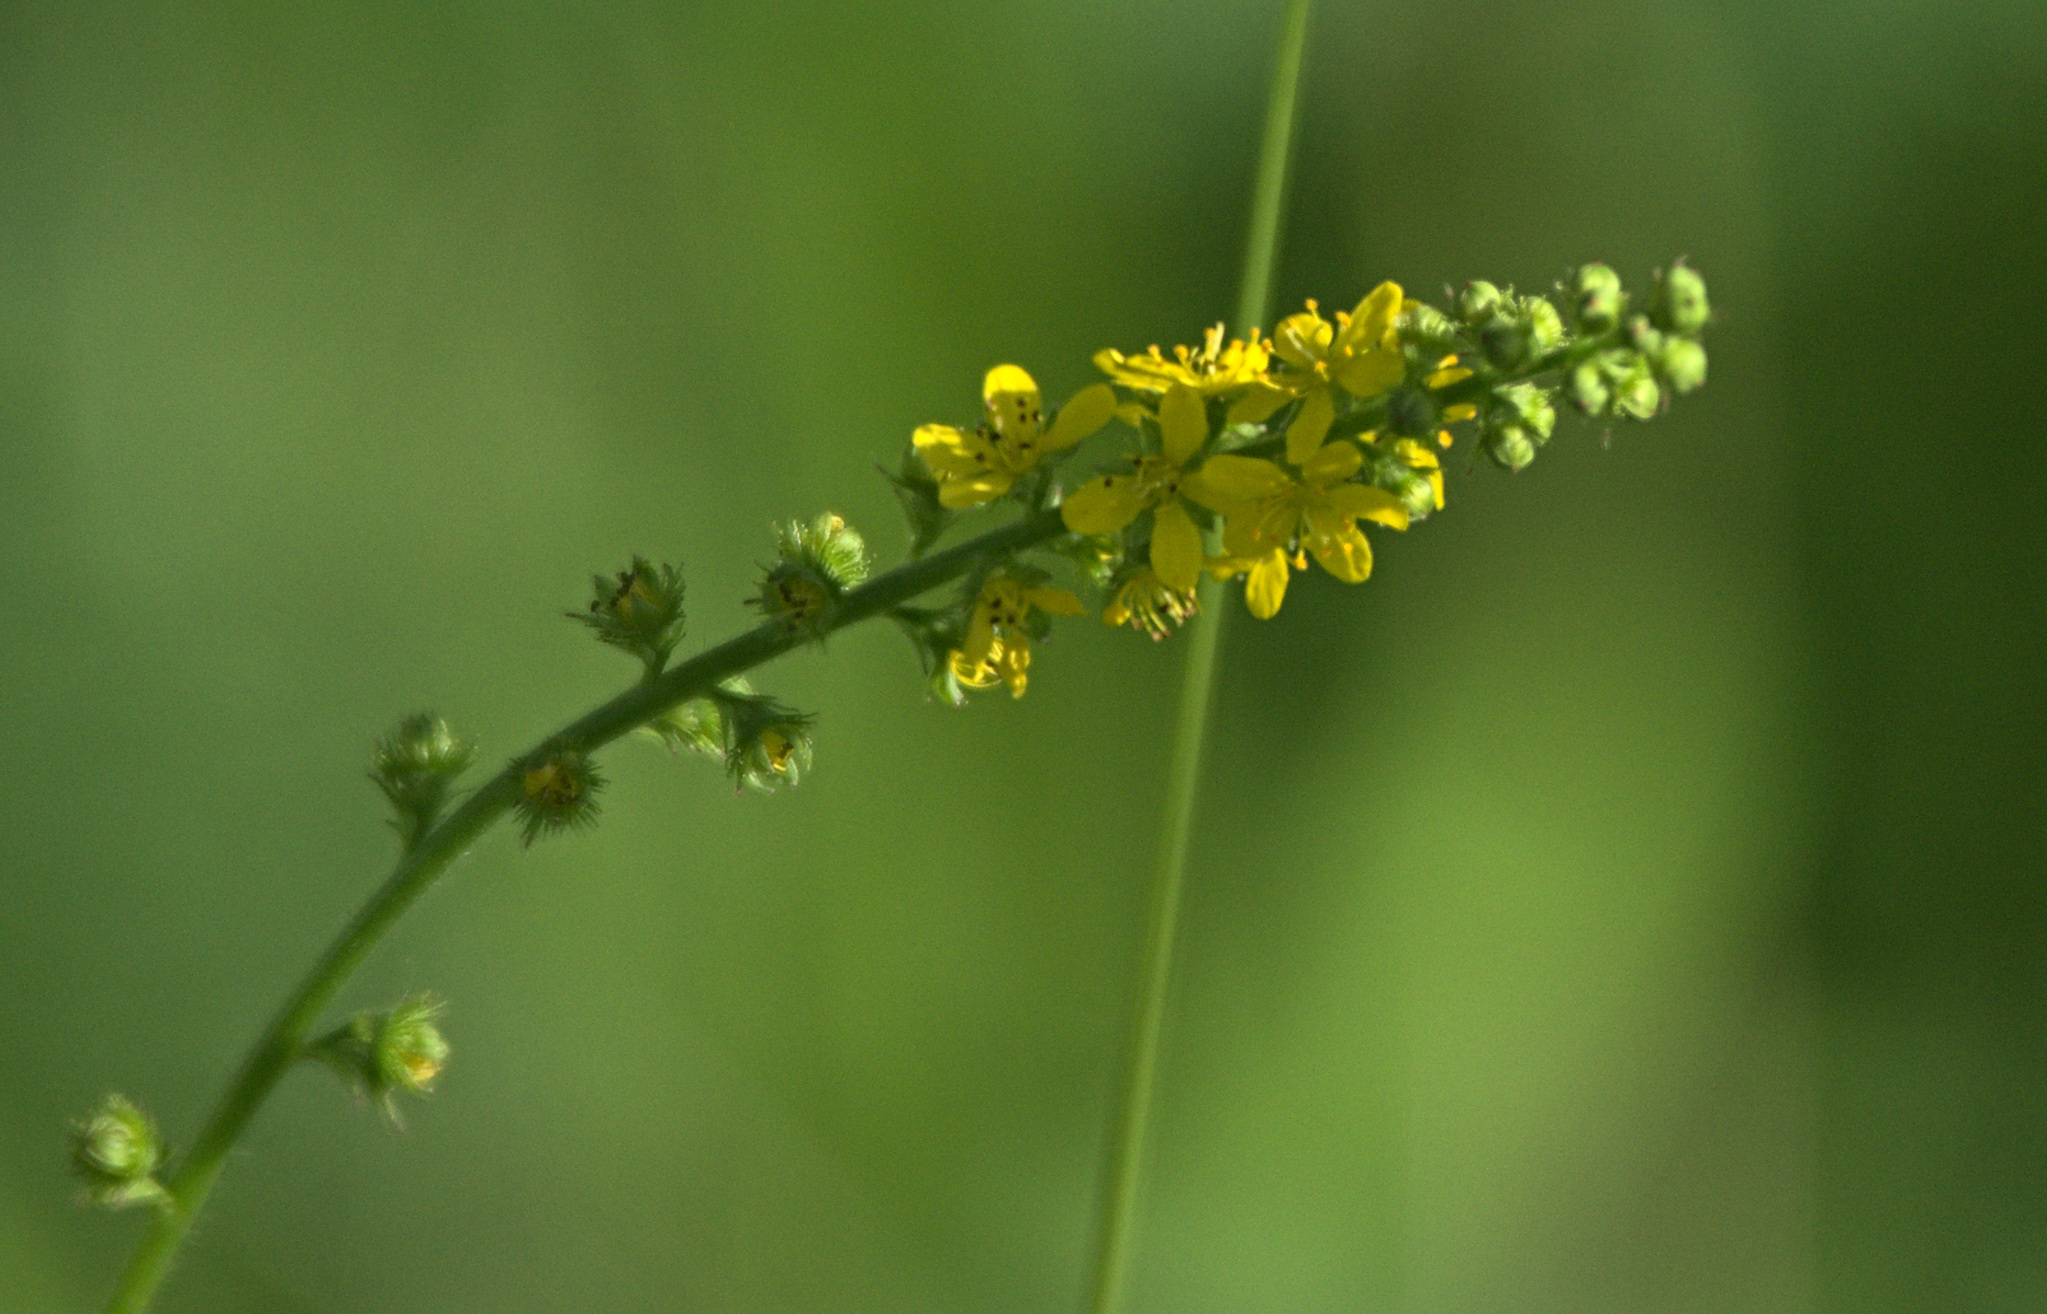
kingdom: Plantae
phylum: Tracheophyta
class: Magnoliopsida
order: Rosales
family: Rosaceae
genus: Agrimonia
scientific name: Agrimonia pilosa
